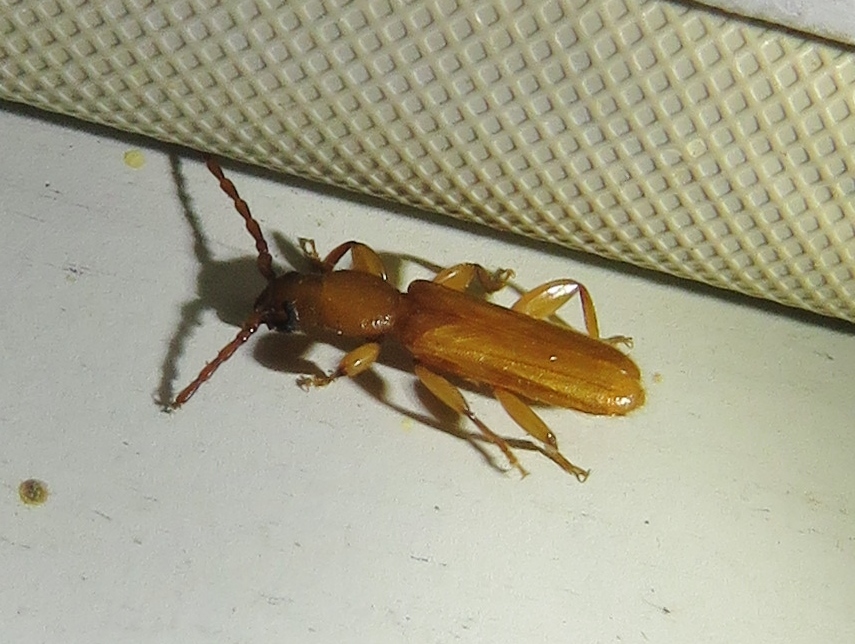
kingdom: Animalia
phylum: Arthropoda
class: Insecta
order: Coleoptera
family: Cerambycidae
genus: Smodicum
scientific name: Smodicum cucujiforme
